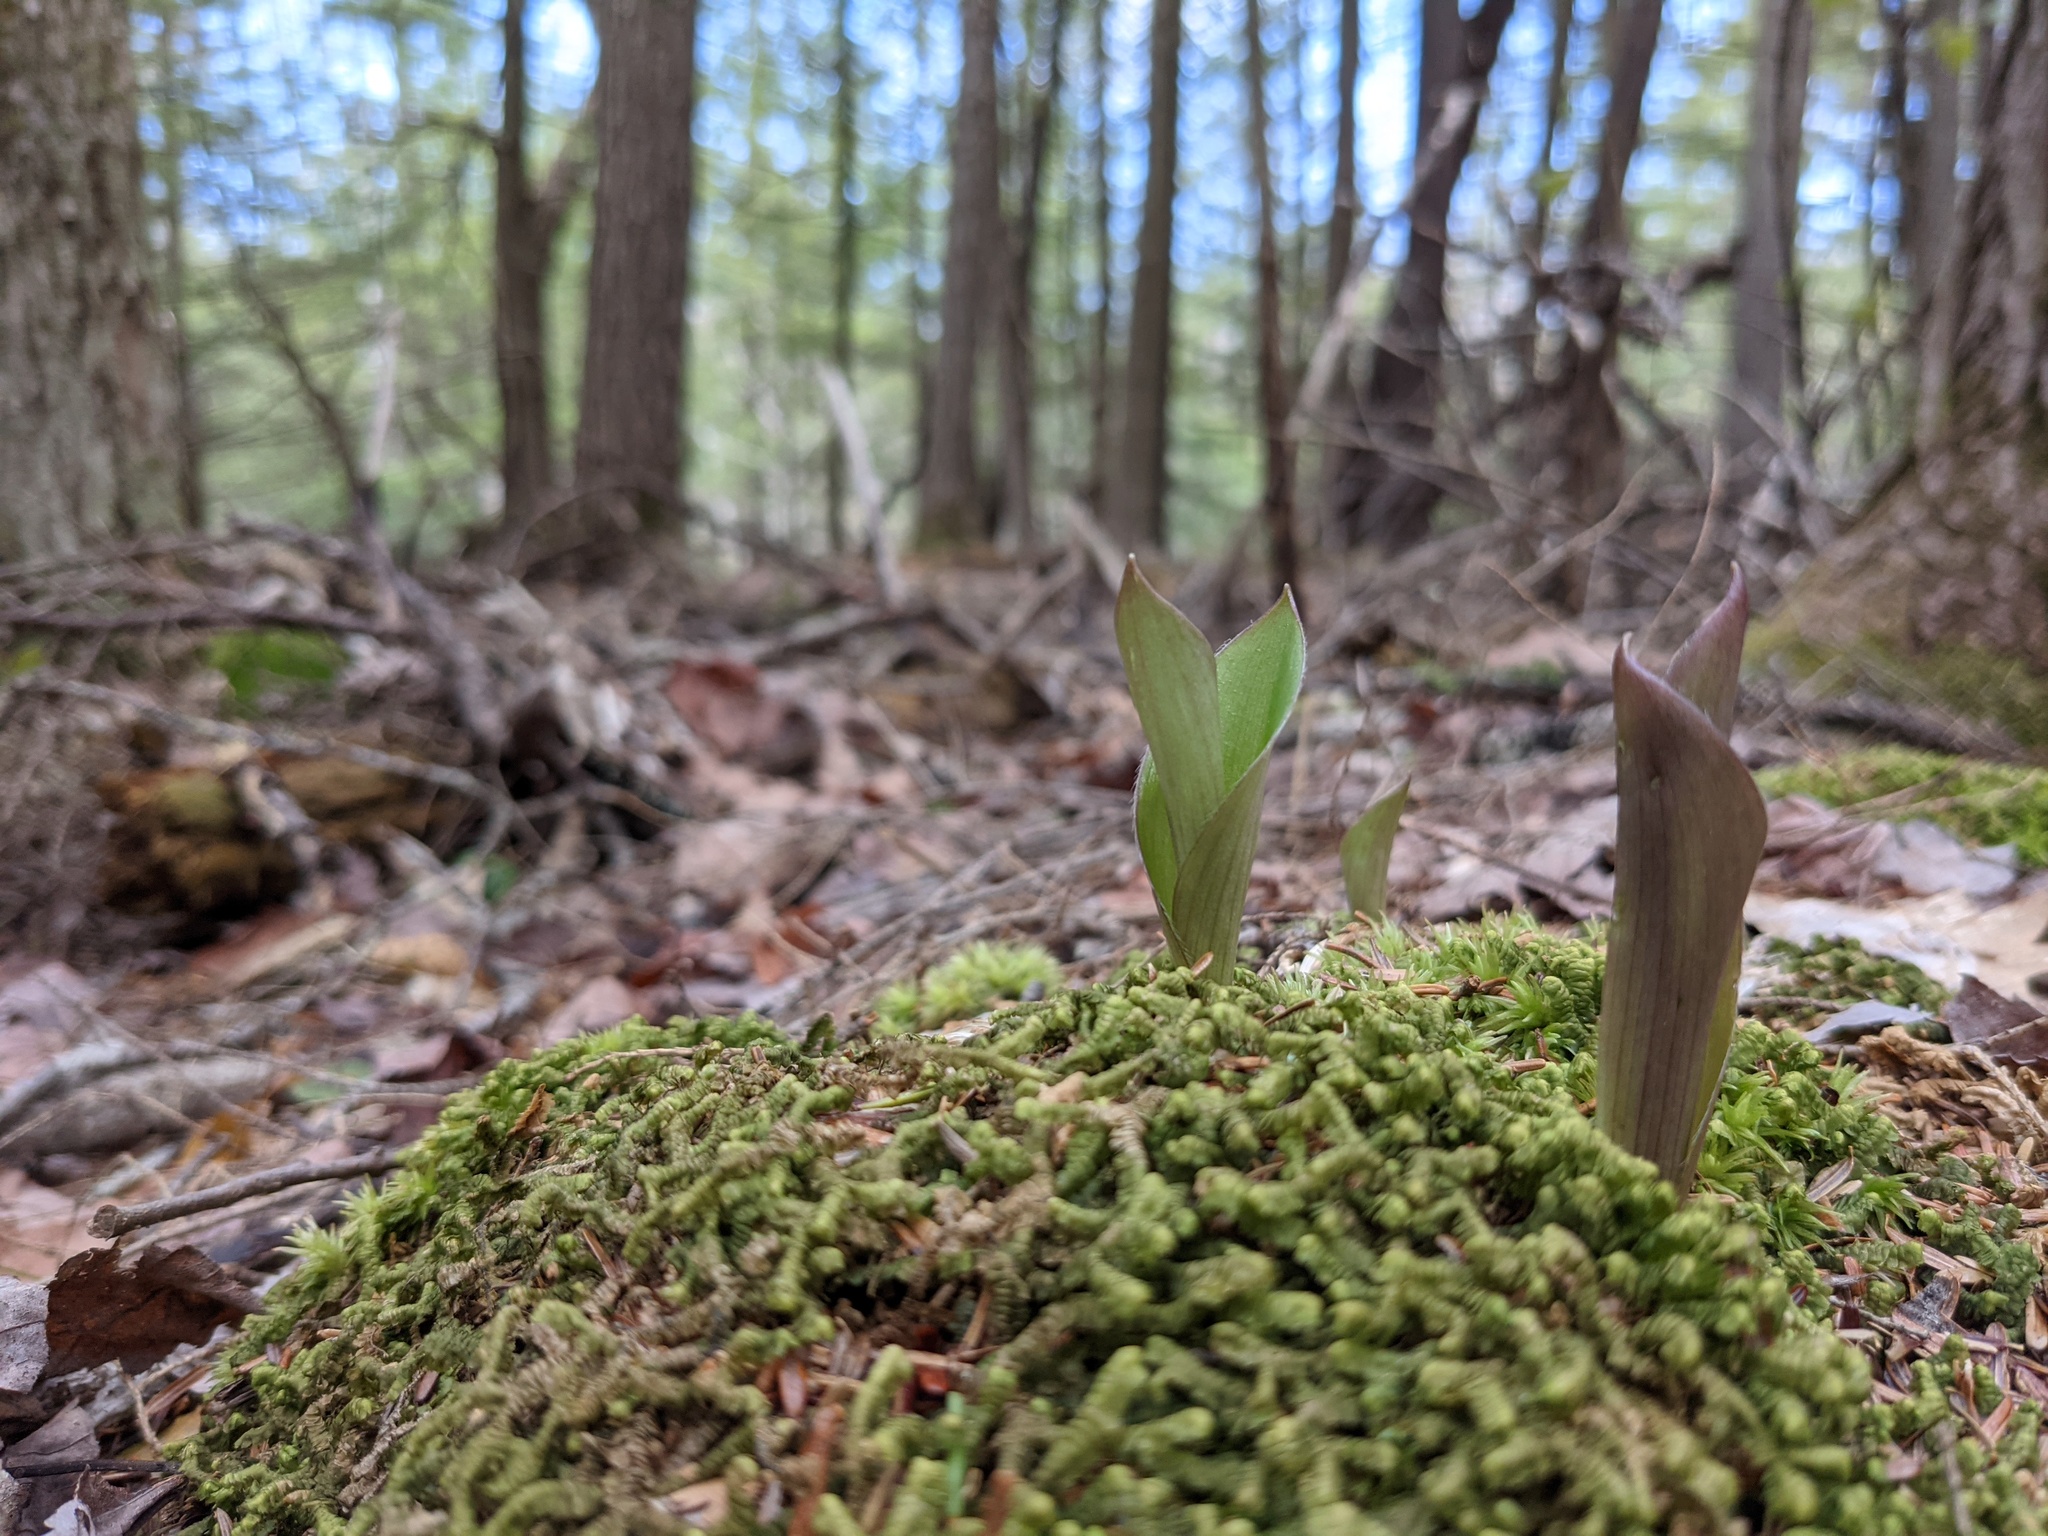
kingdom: Plantae
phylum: Tracheophyta
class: Liliopsida
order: Liliales
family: Liliaceae
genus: Clintonia
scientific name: Clintonia borealis
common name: Yellow clintonia
